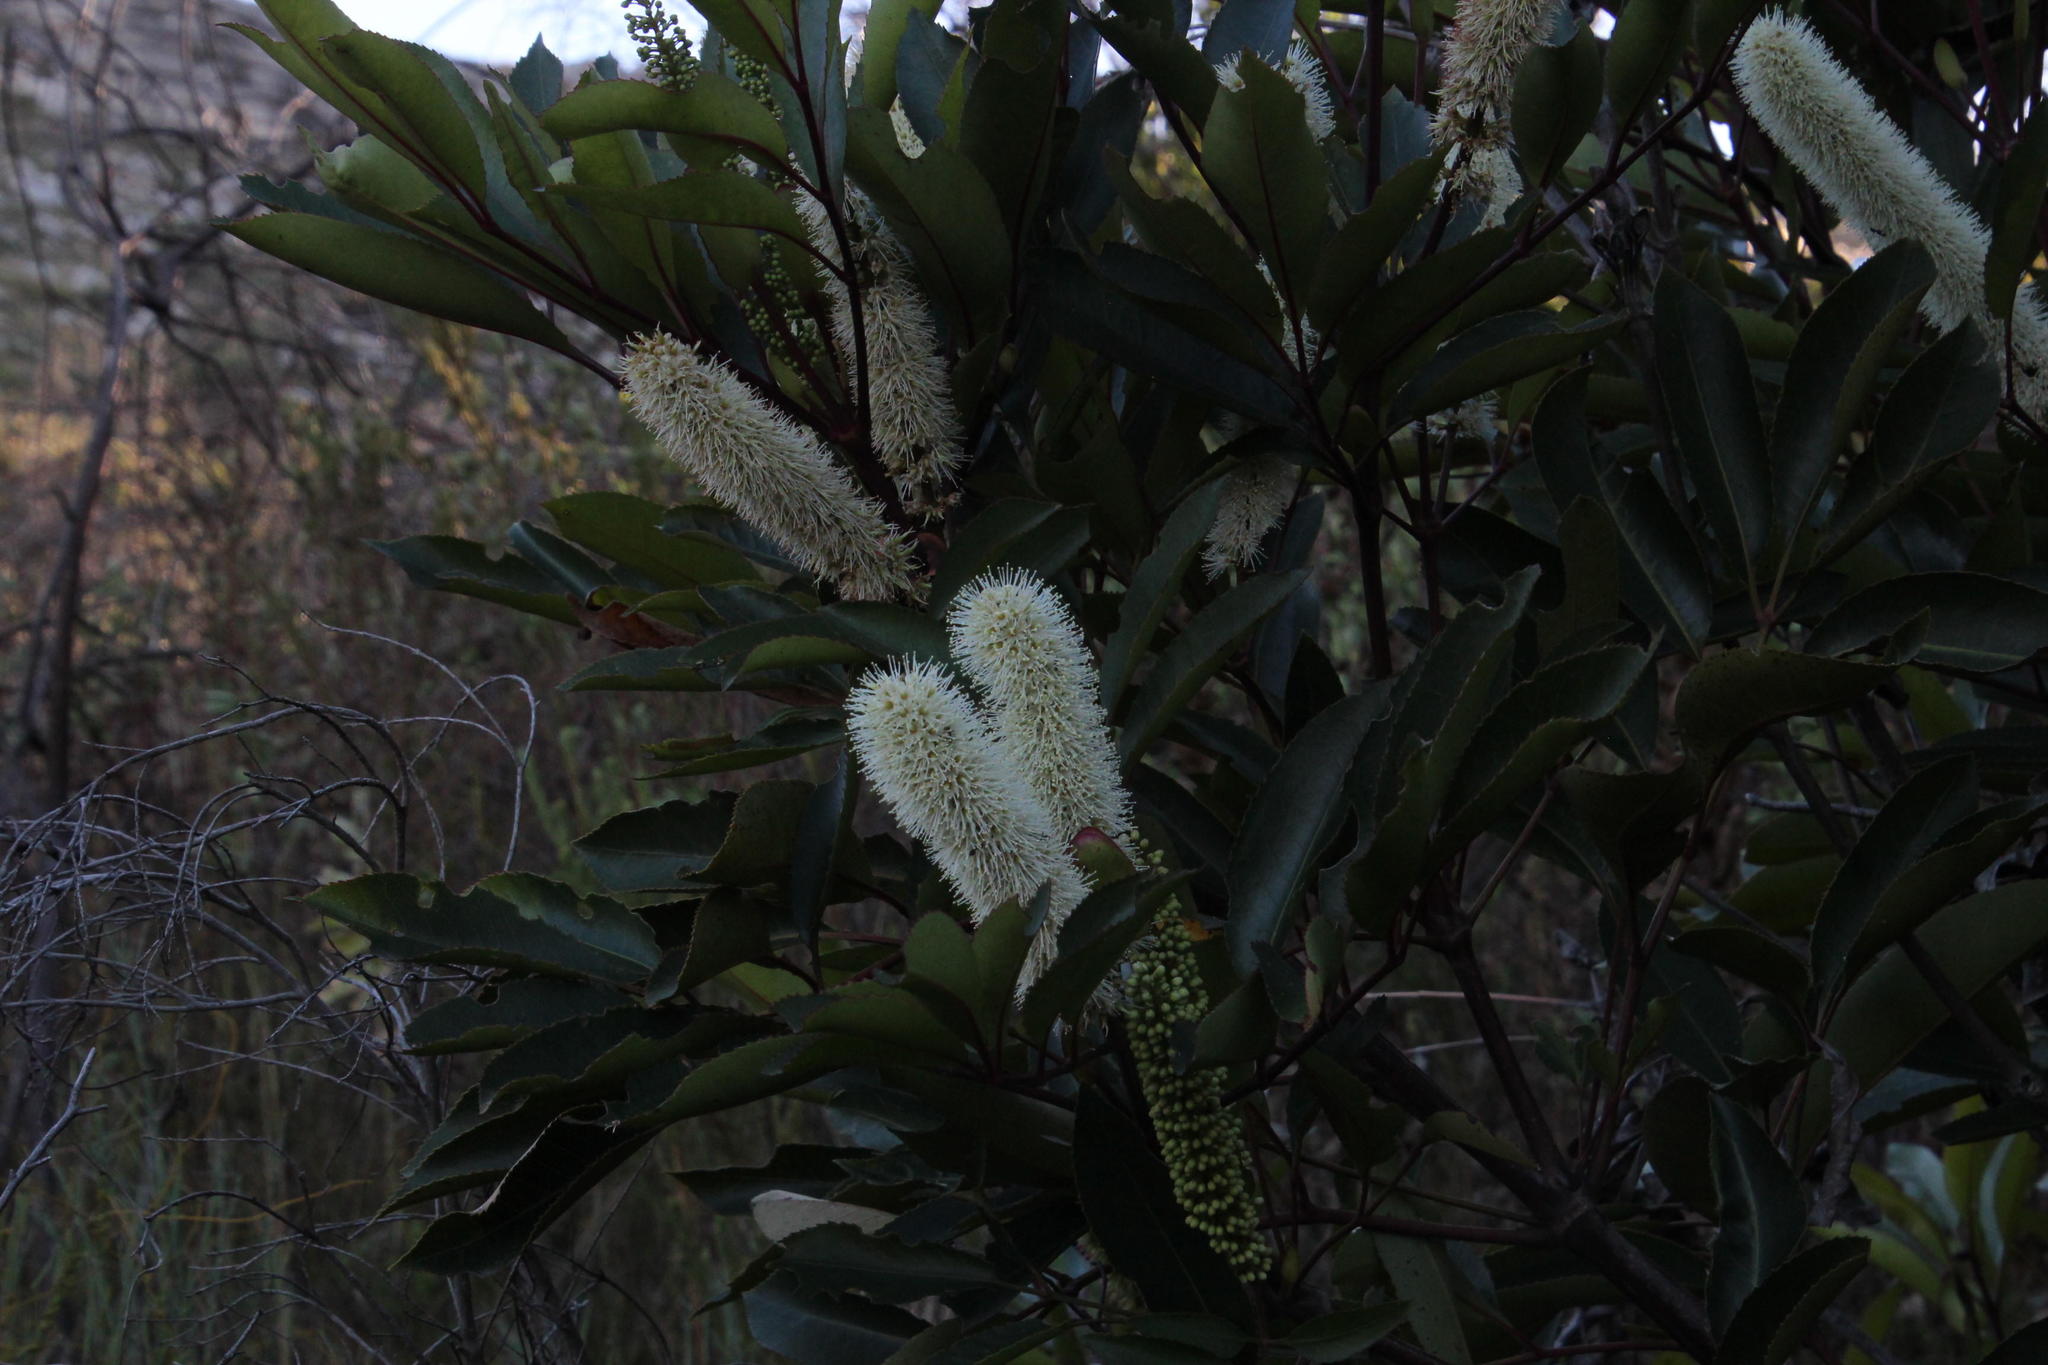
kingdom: Plantae
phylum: Tracheophyta
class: Magnoliopsida
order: Oxalidales
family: Cunoniaceae
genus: Cunonia
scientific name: Cunonia capensis
